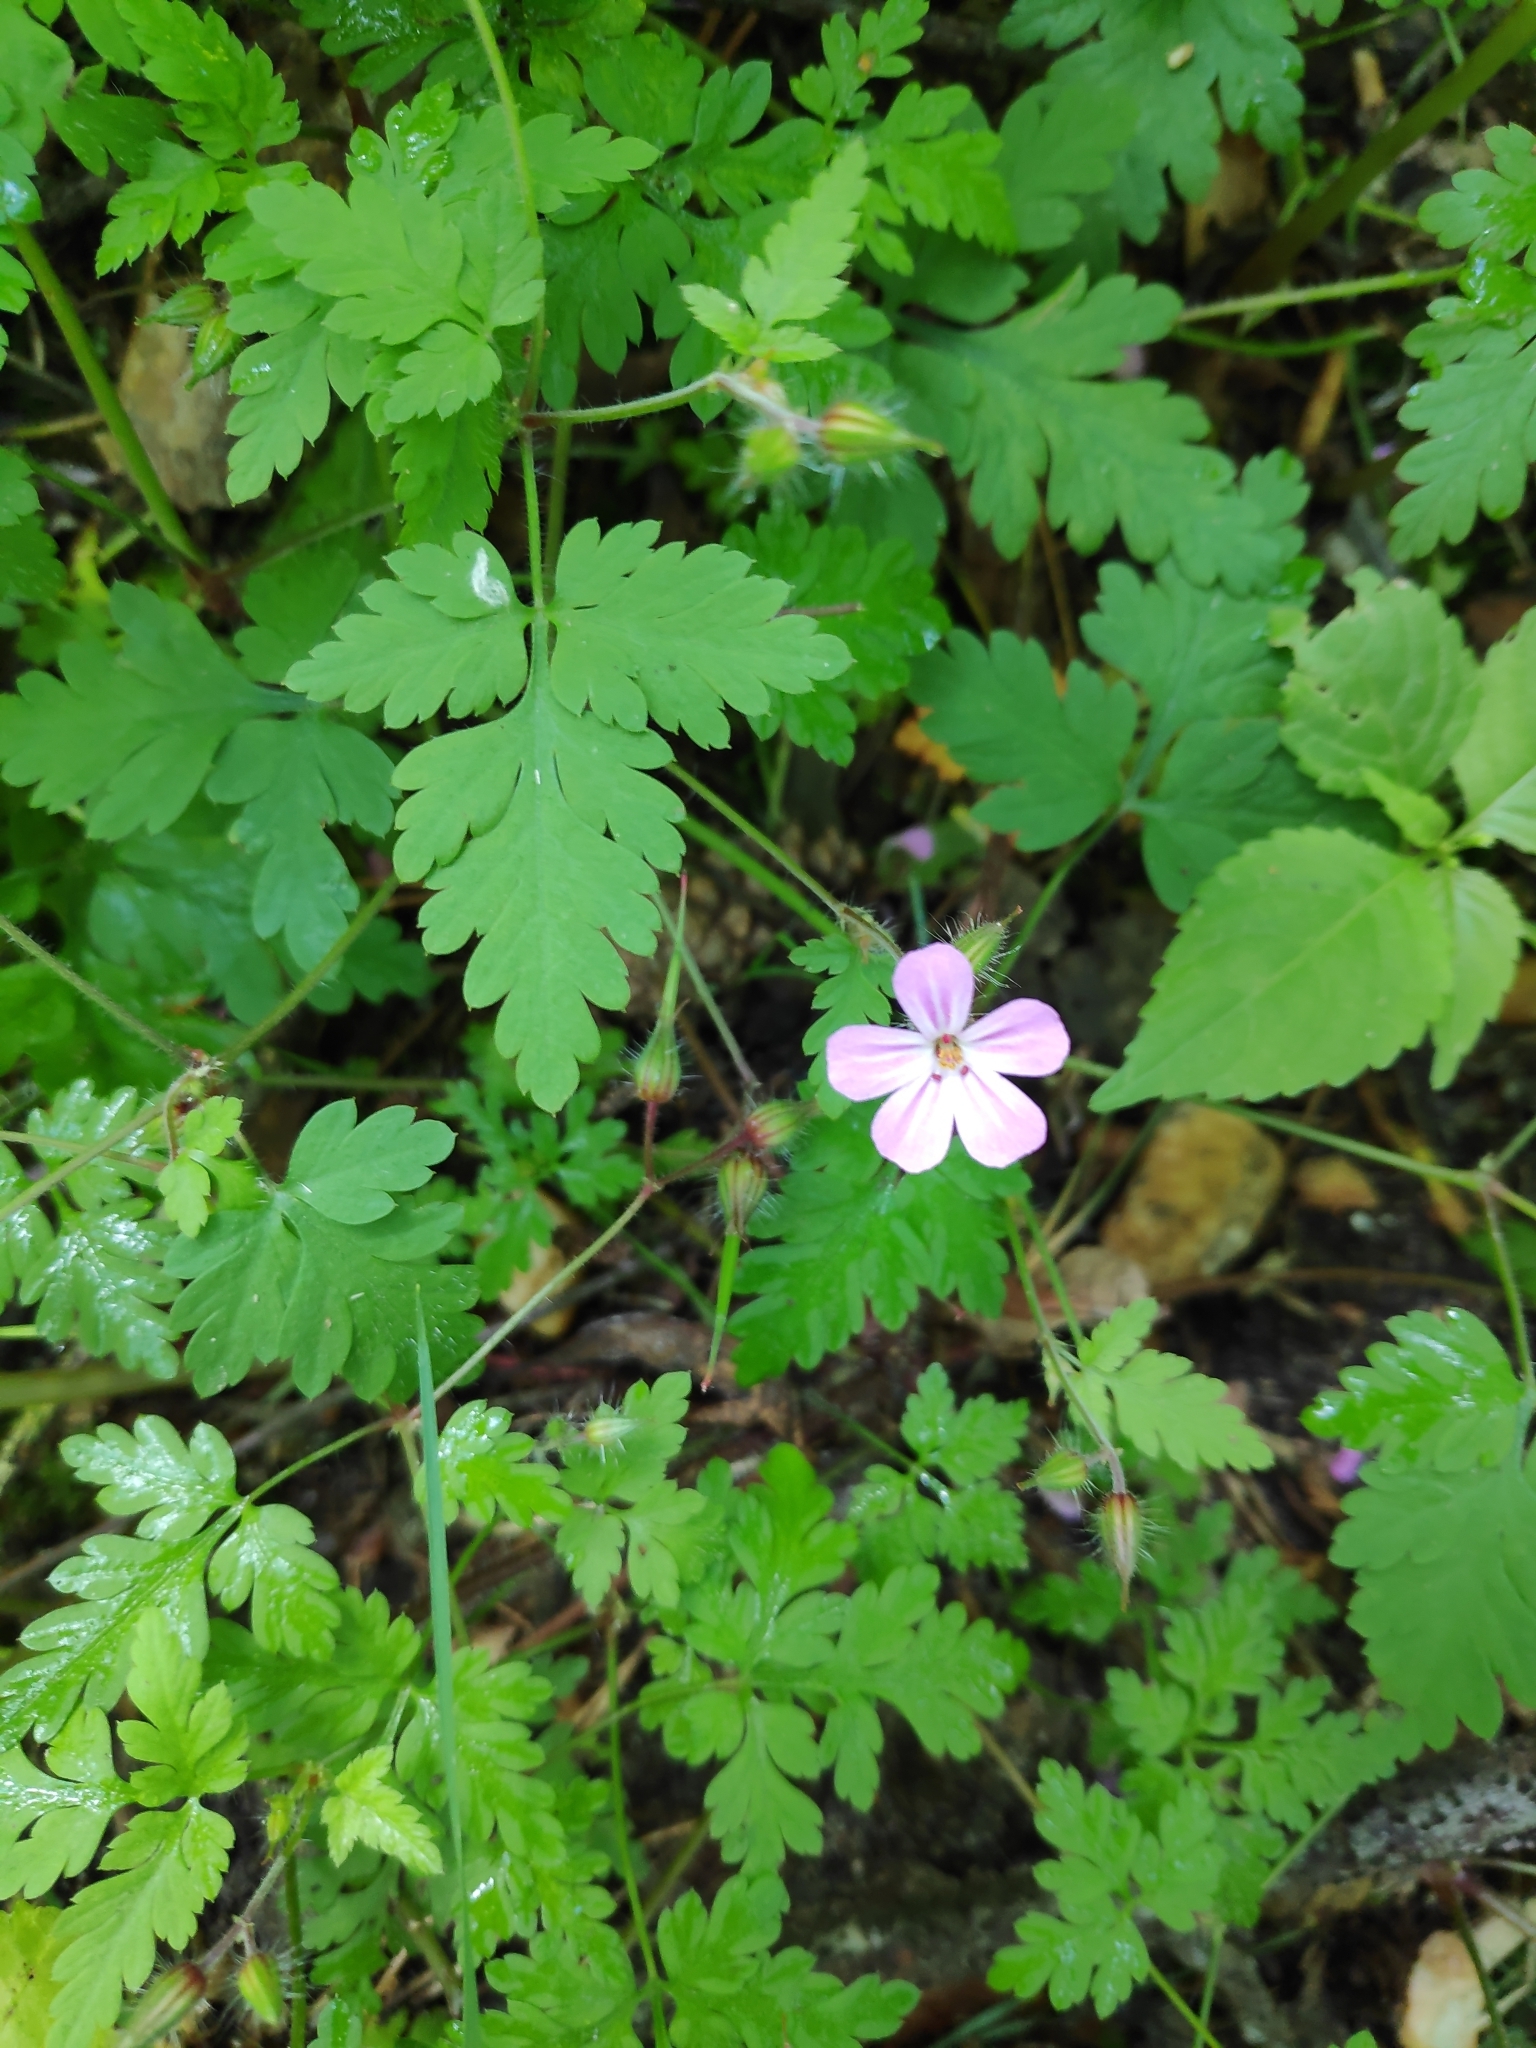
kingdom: Plantae
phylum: Tracheophyta
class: Magnoliopsida
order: Geraniales
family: Geraniaceae
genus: Geranium
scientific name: Geranium robertianum
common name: Herb-robert
